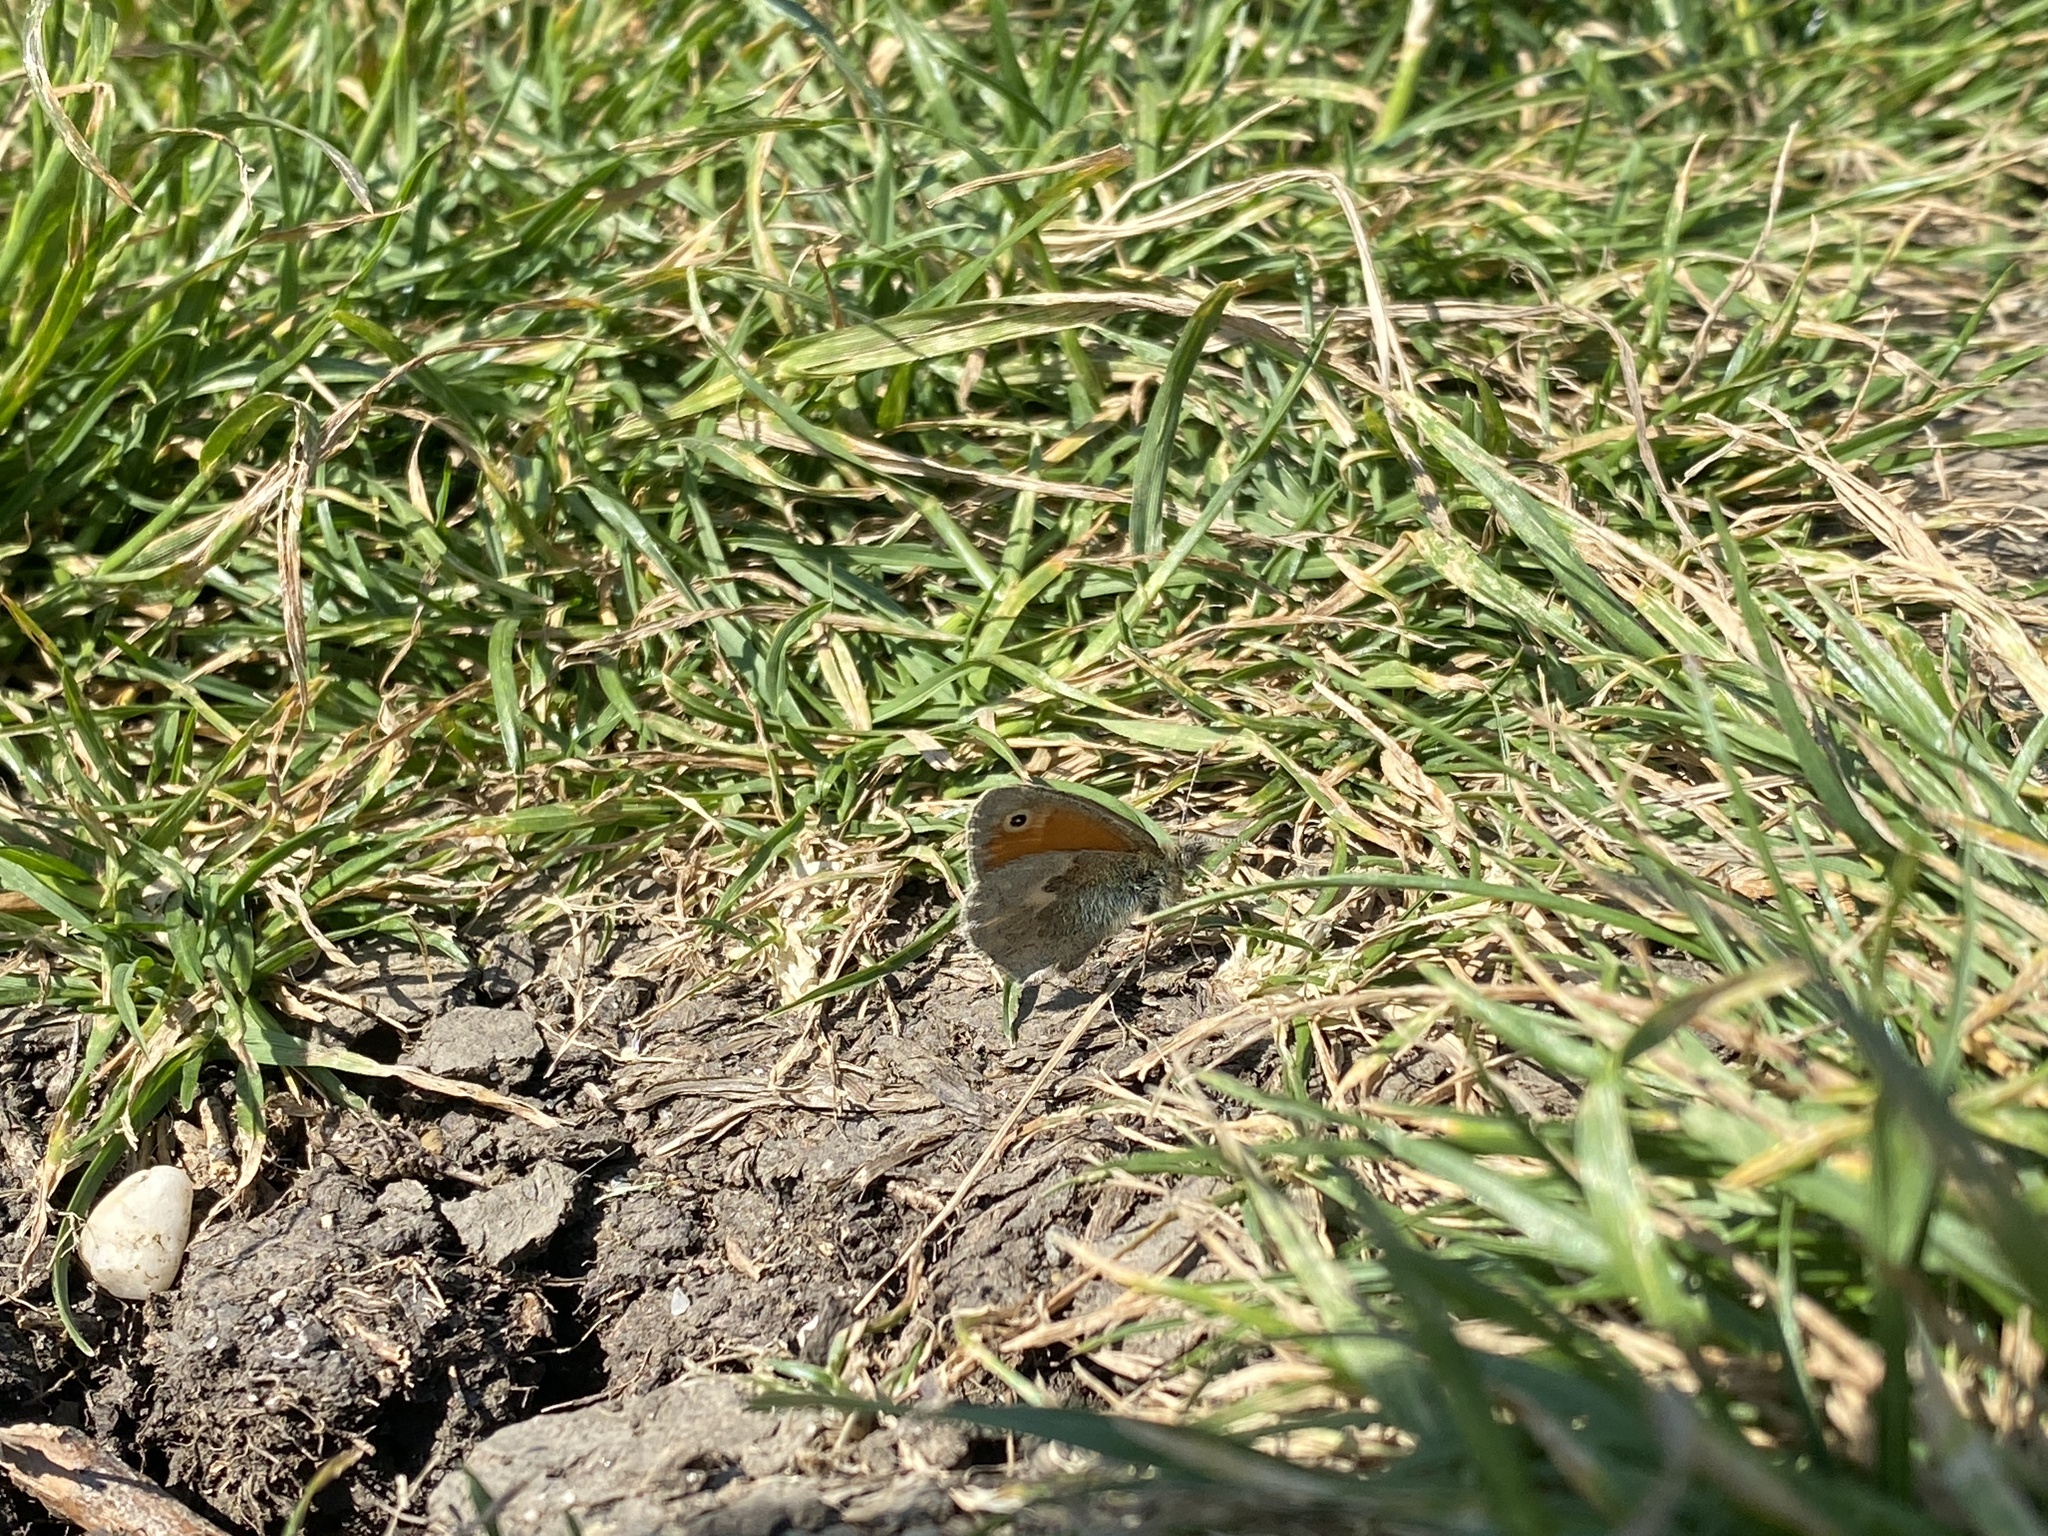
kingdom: Animalia
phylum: Arthropoda
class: Insecta
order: Lepidoptera
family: Nymphalidae
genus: Coenonympha
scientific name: Coenonympha pamphilus
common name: Small heath
